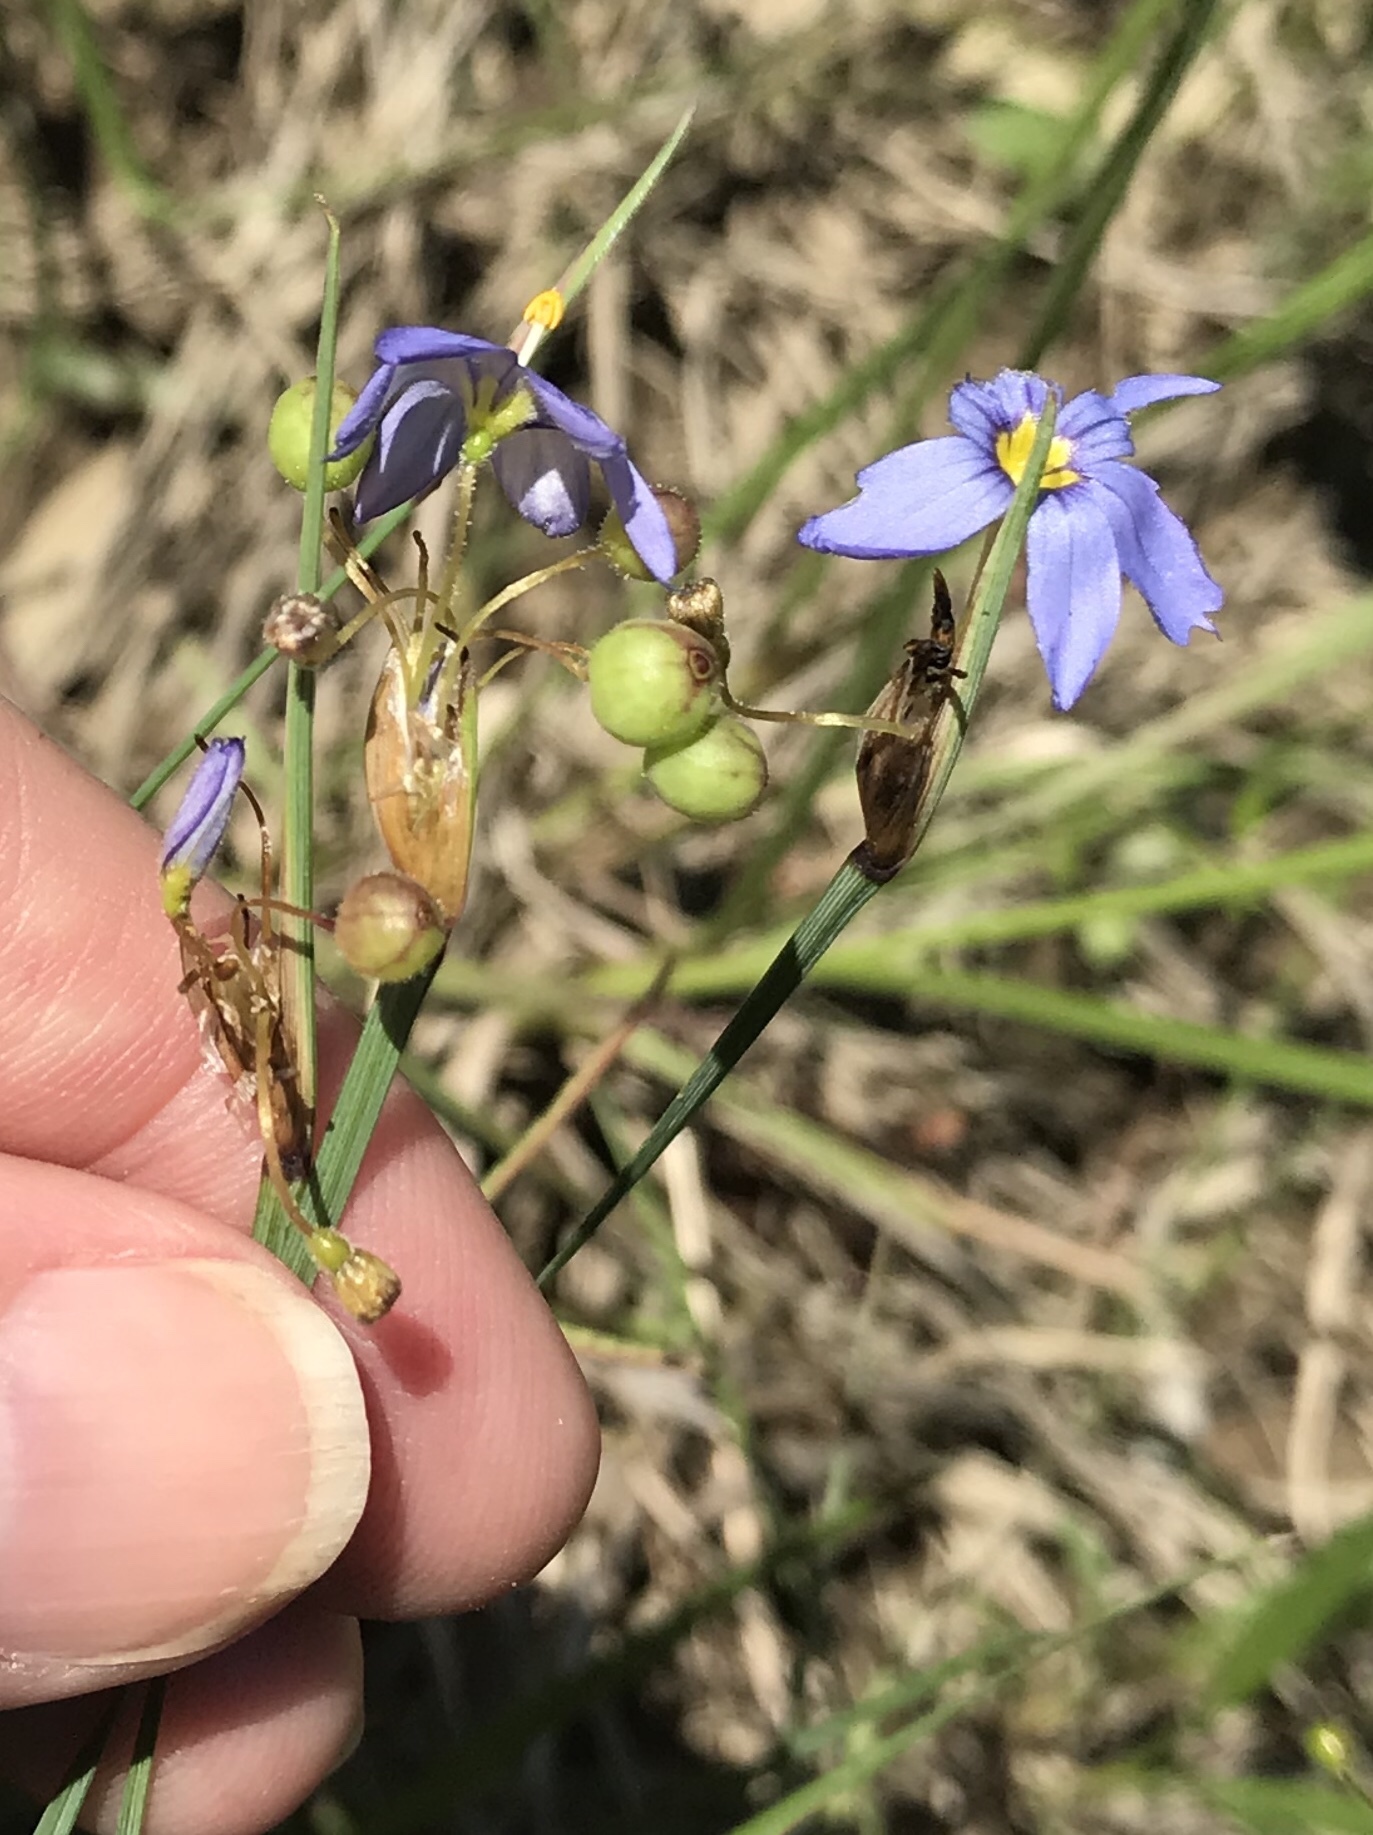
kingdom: Plantae
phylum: Tracheophyta
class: Liliopsida
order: Asparagales
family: Iridaceae
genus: Sisyrinchium
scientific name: Sisyrinchium sagittiferum
